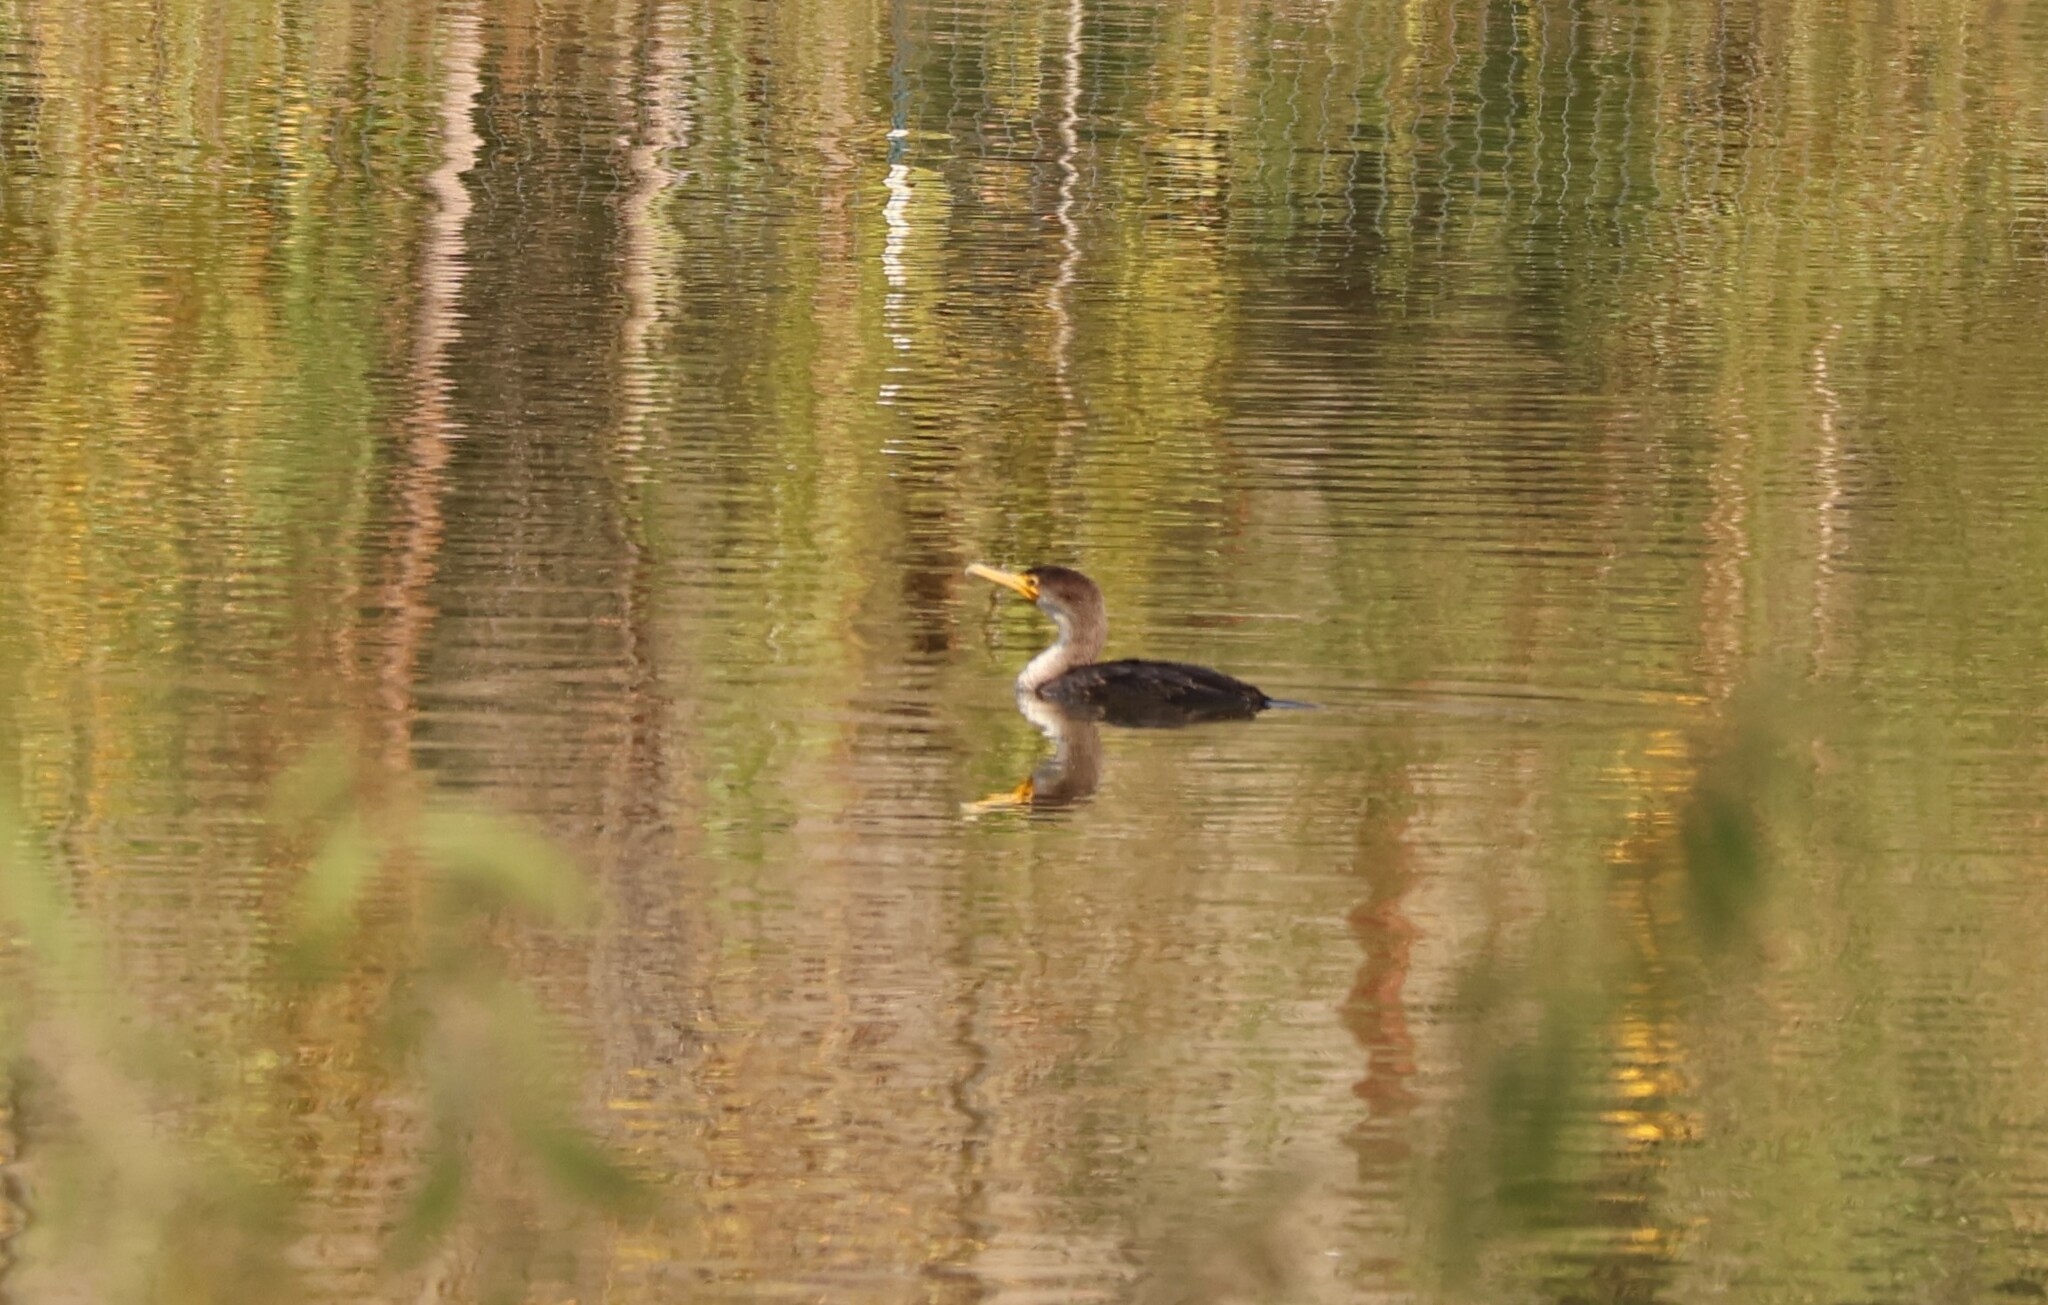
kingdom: Animalia
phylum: Chordata
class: Aves
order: Suliformes
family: Phalacrocoracidae
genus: Phalacrocorax
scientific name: Phalacrocorax auritus
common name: Double-crested cormorant
